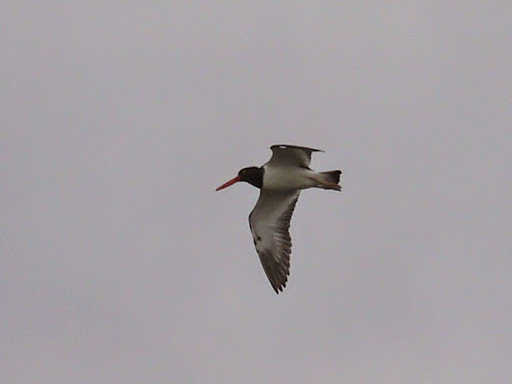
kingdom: Animalia
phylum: Chordata
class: Aves
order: Charadriiformes
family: Haematopodidae
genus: Haematopus
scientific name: Haematopus palliatus
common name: American oystercatcher
